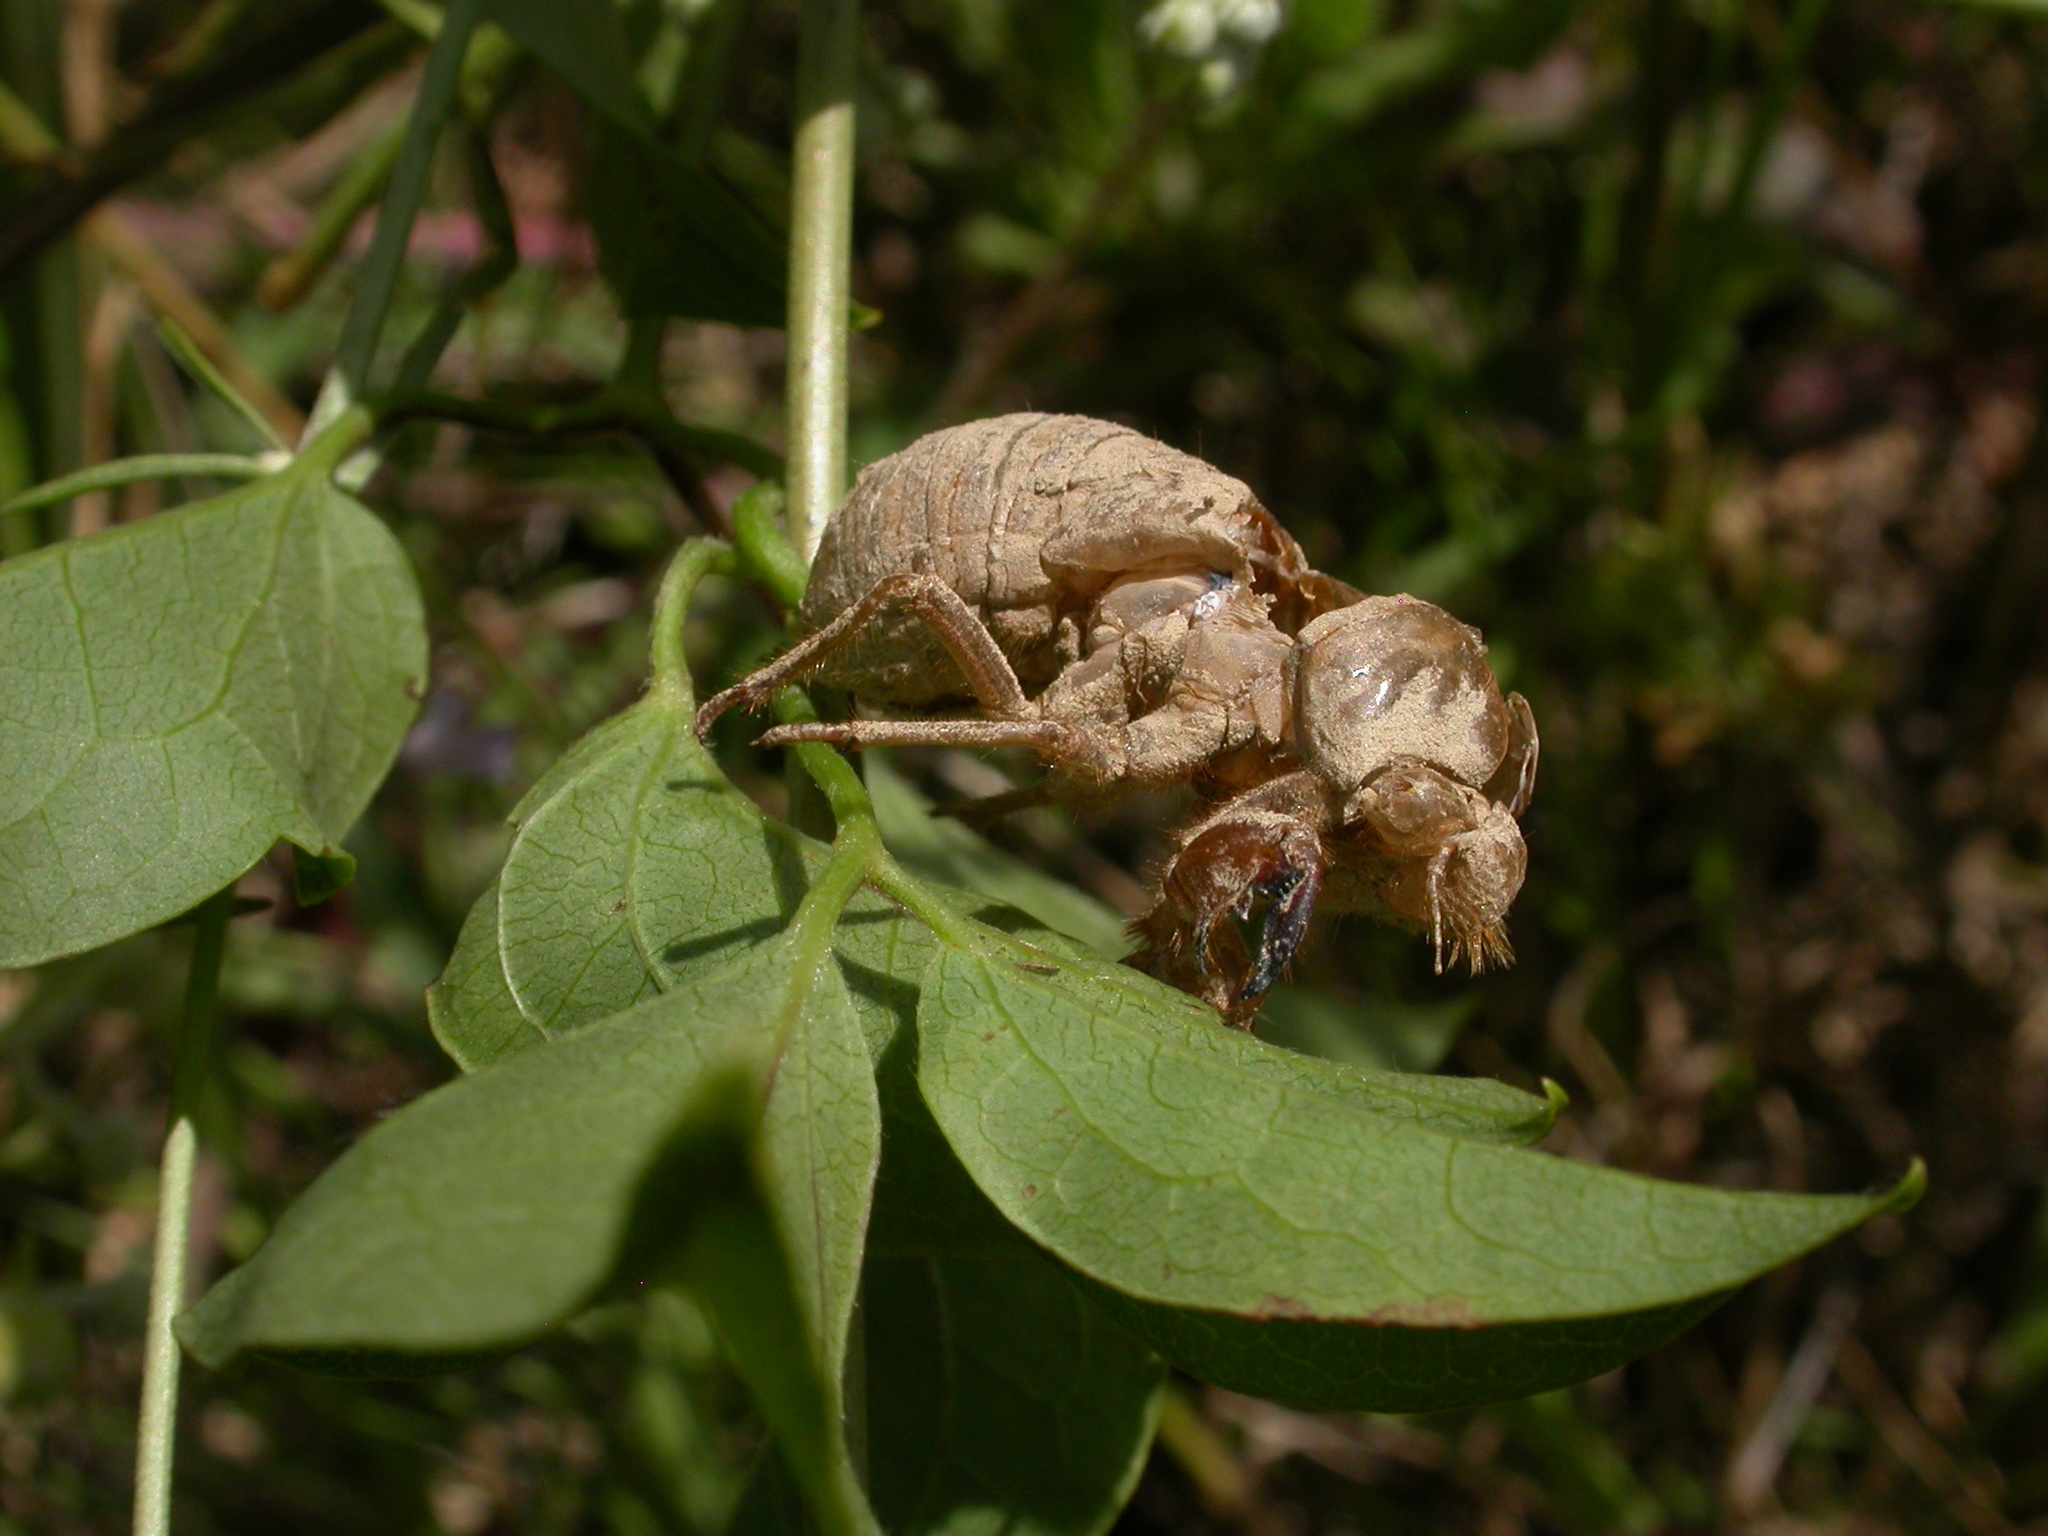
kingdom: Animalia
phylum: Arthropoda
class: Insecta
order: Hemiptera
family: Cicadidae
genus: Lyristes
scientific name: Lyristes plebejus
